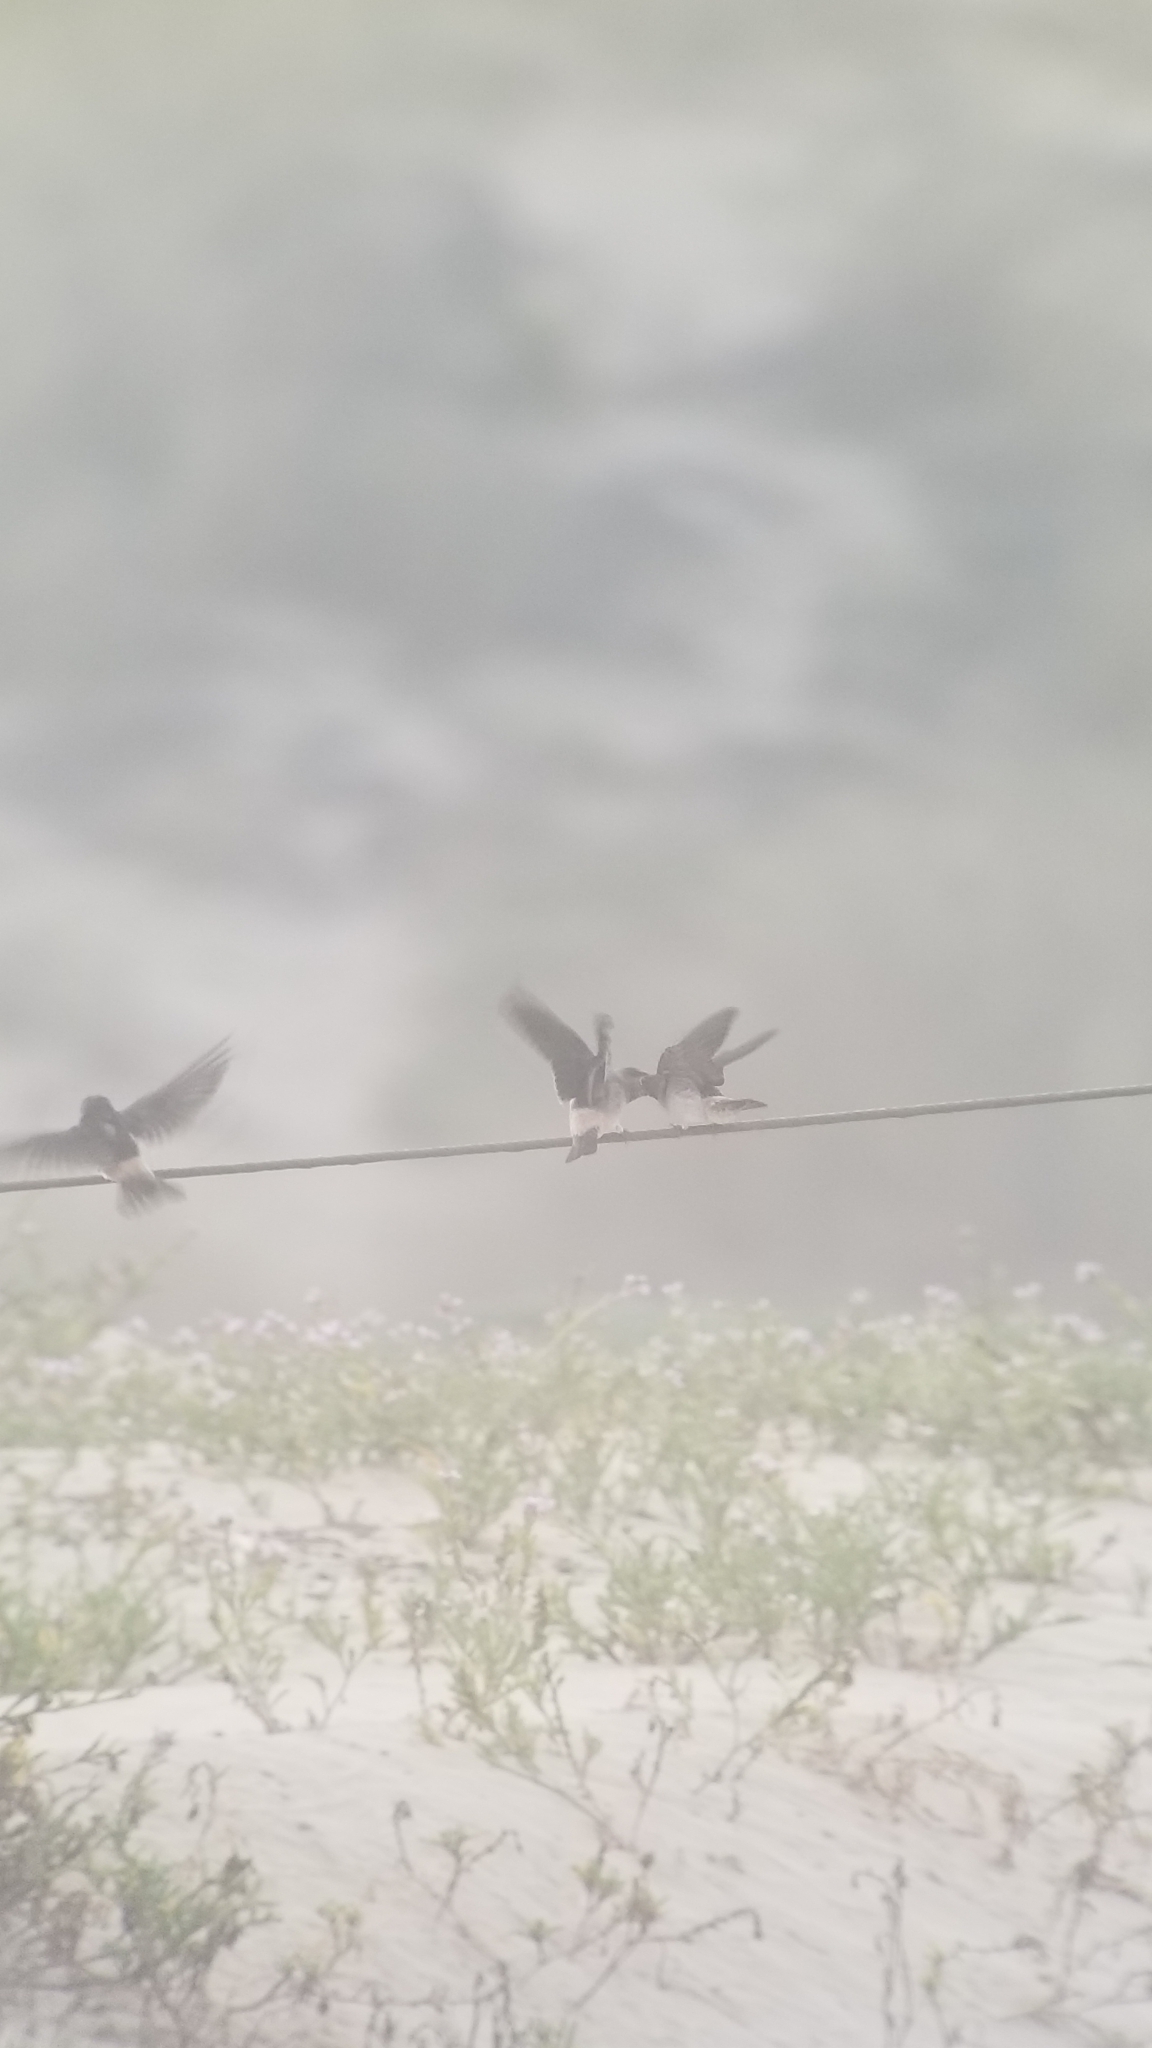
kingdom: Animalia
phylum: Chordata
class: Aves
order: Passeriformes
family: Hirundinidae
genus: Petrochelidon
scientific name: Petrochelidon pyrrhonota
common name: American cliff swallow
